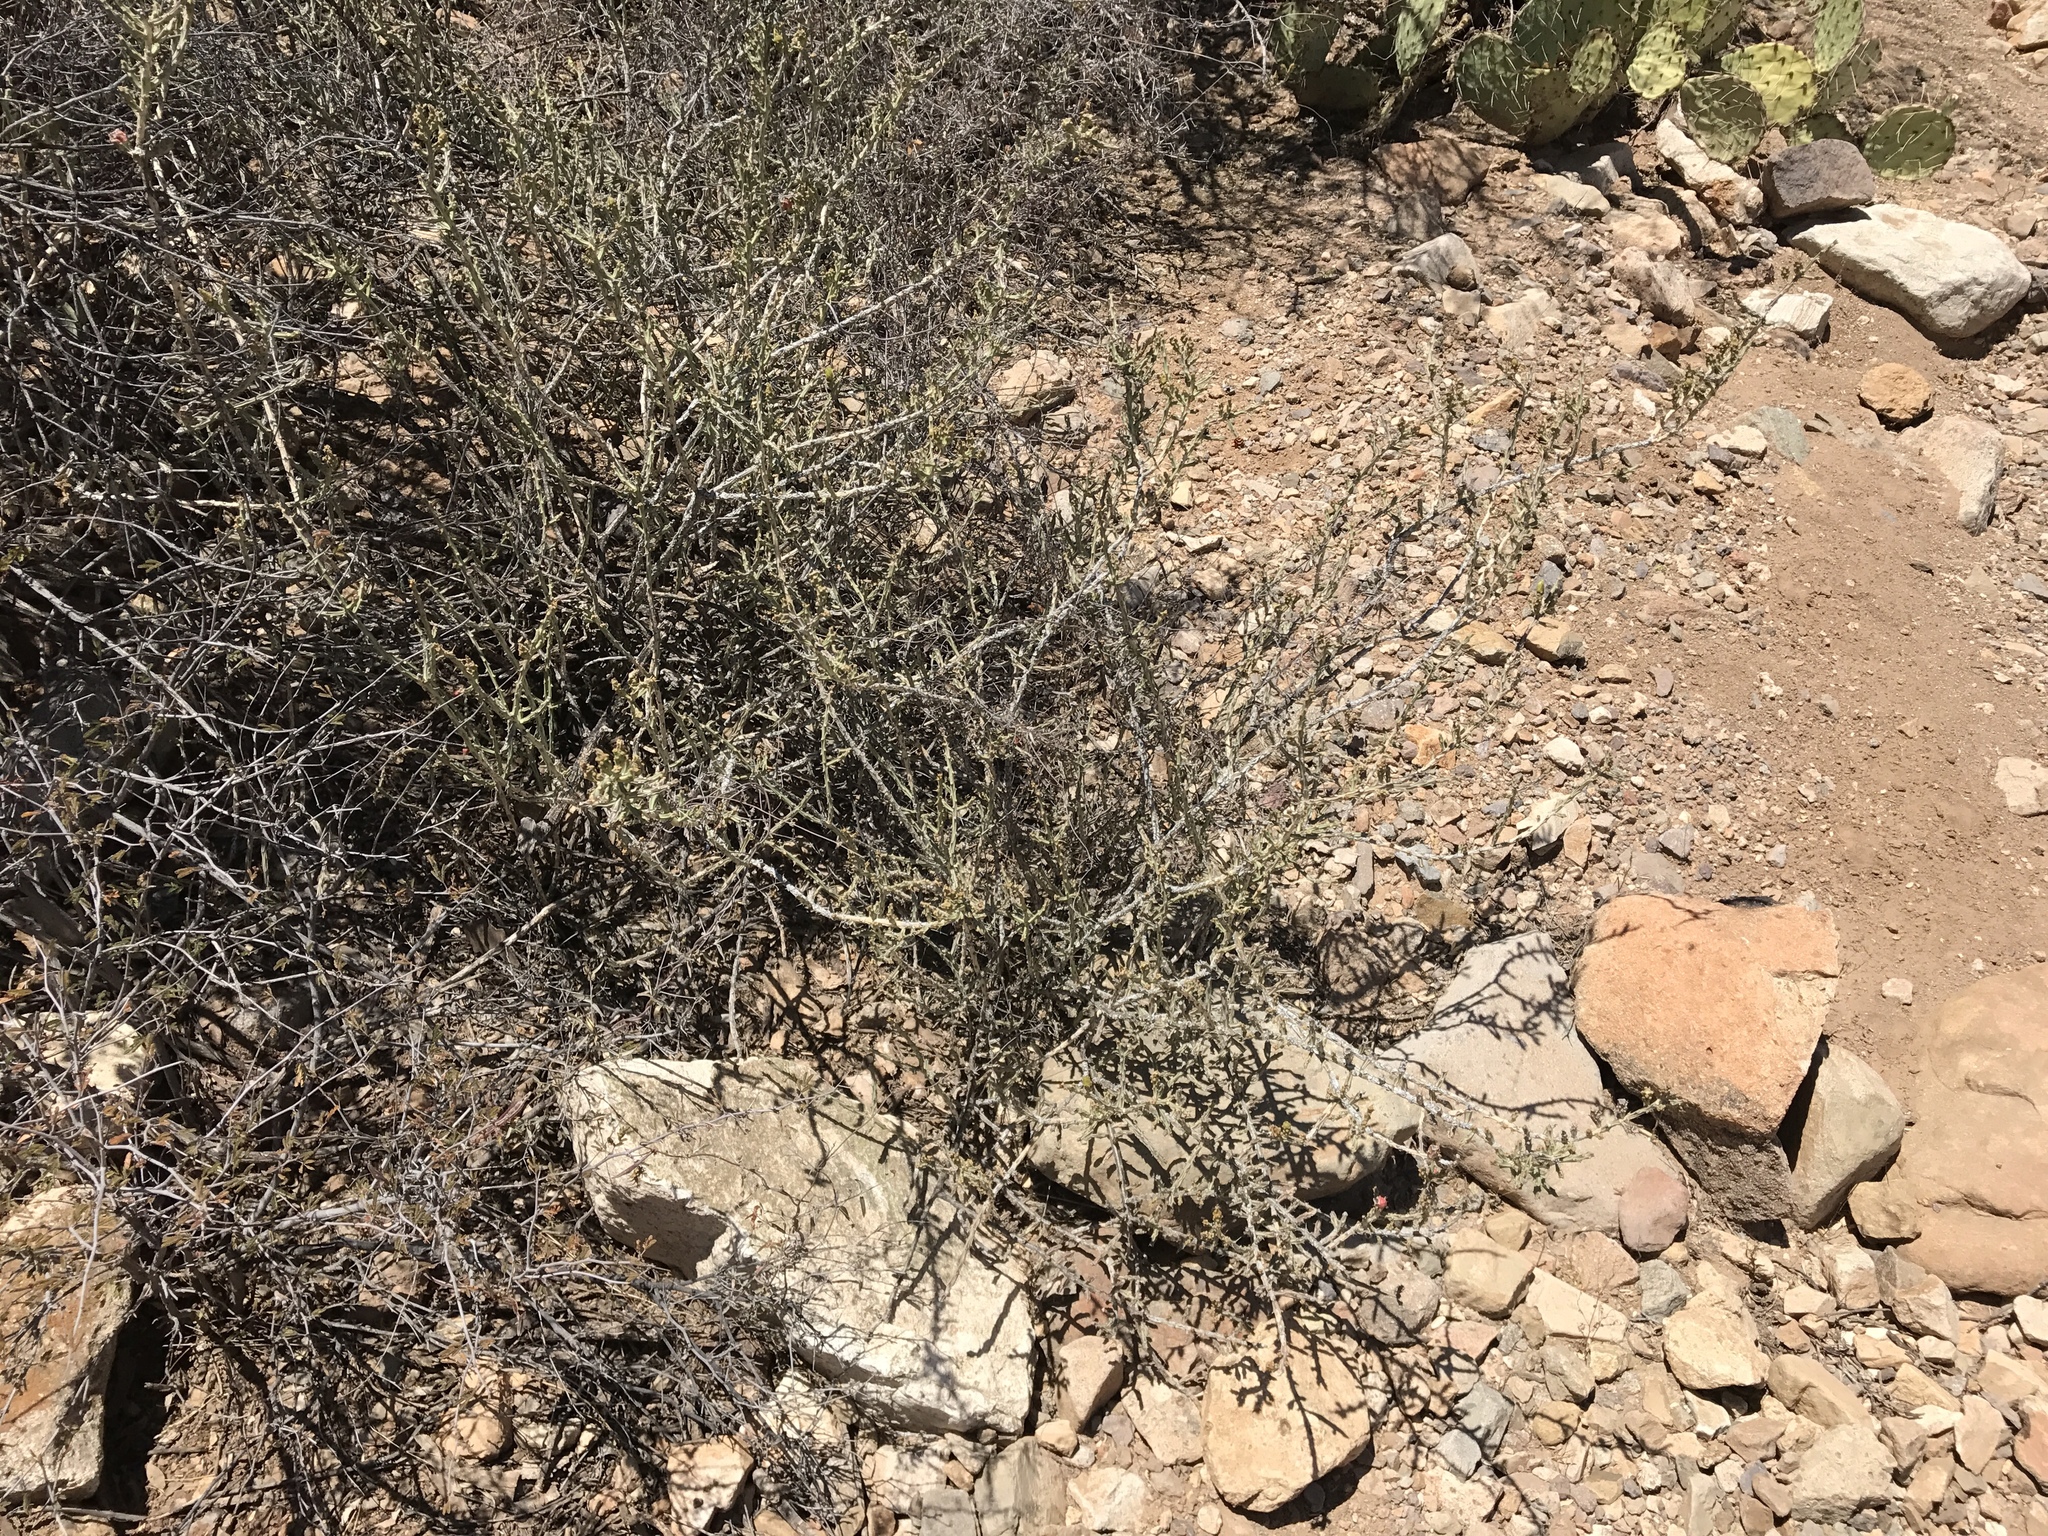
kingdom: Plantae
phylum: Tracheophyta
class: Magnoliopsida
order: Caryophyllales
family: Cactaceae
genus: Cylindropuntia
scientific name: Cylindropuntia leptocaulis
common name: Christmas cactus
